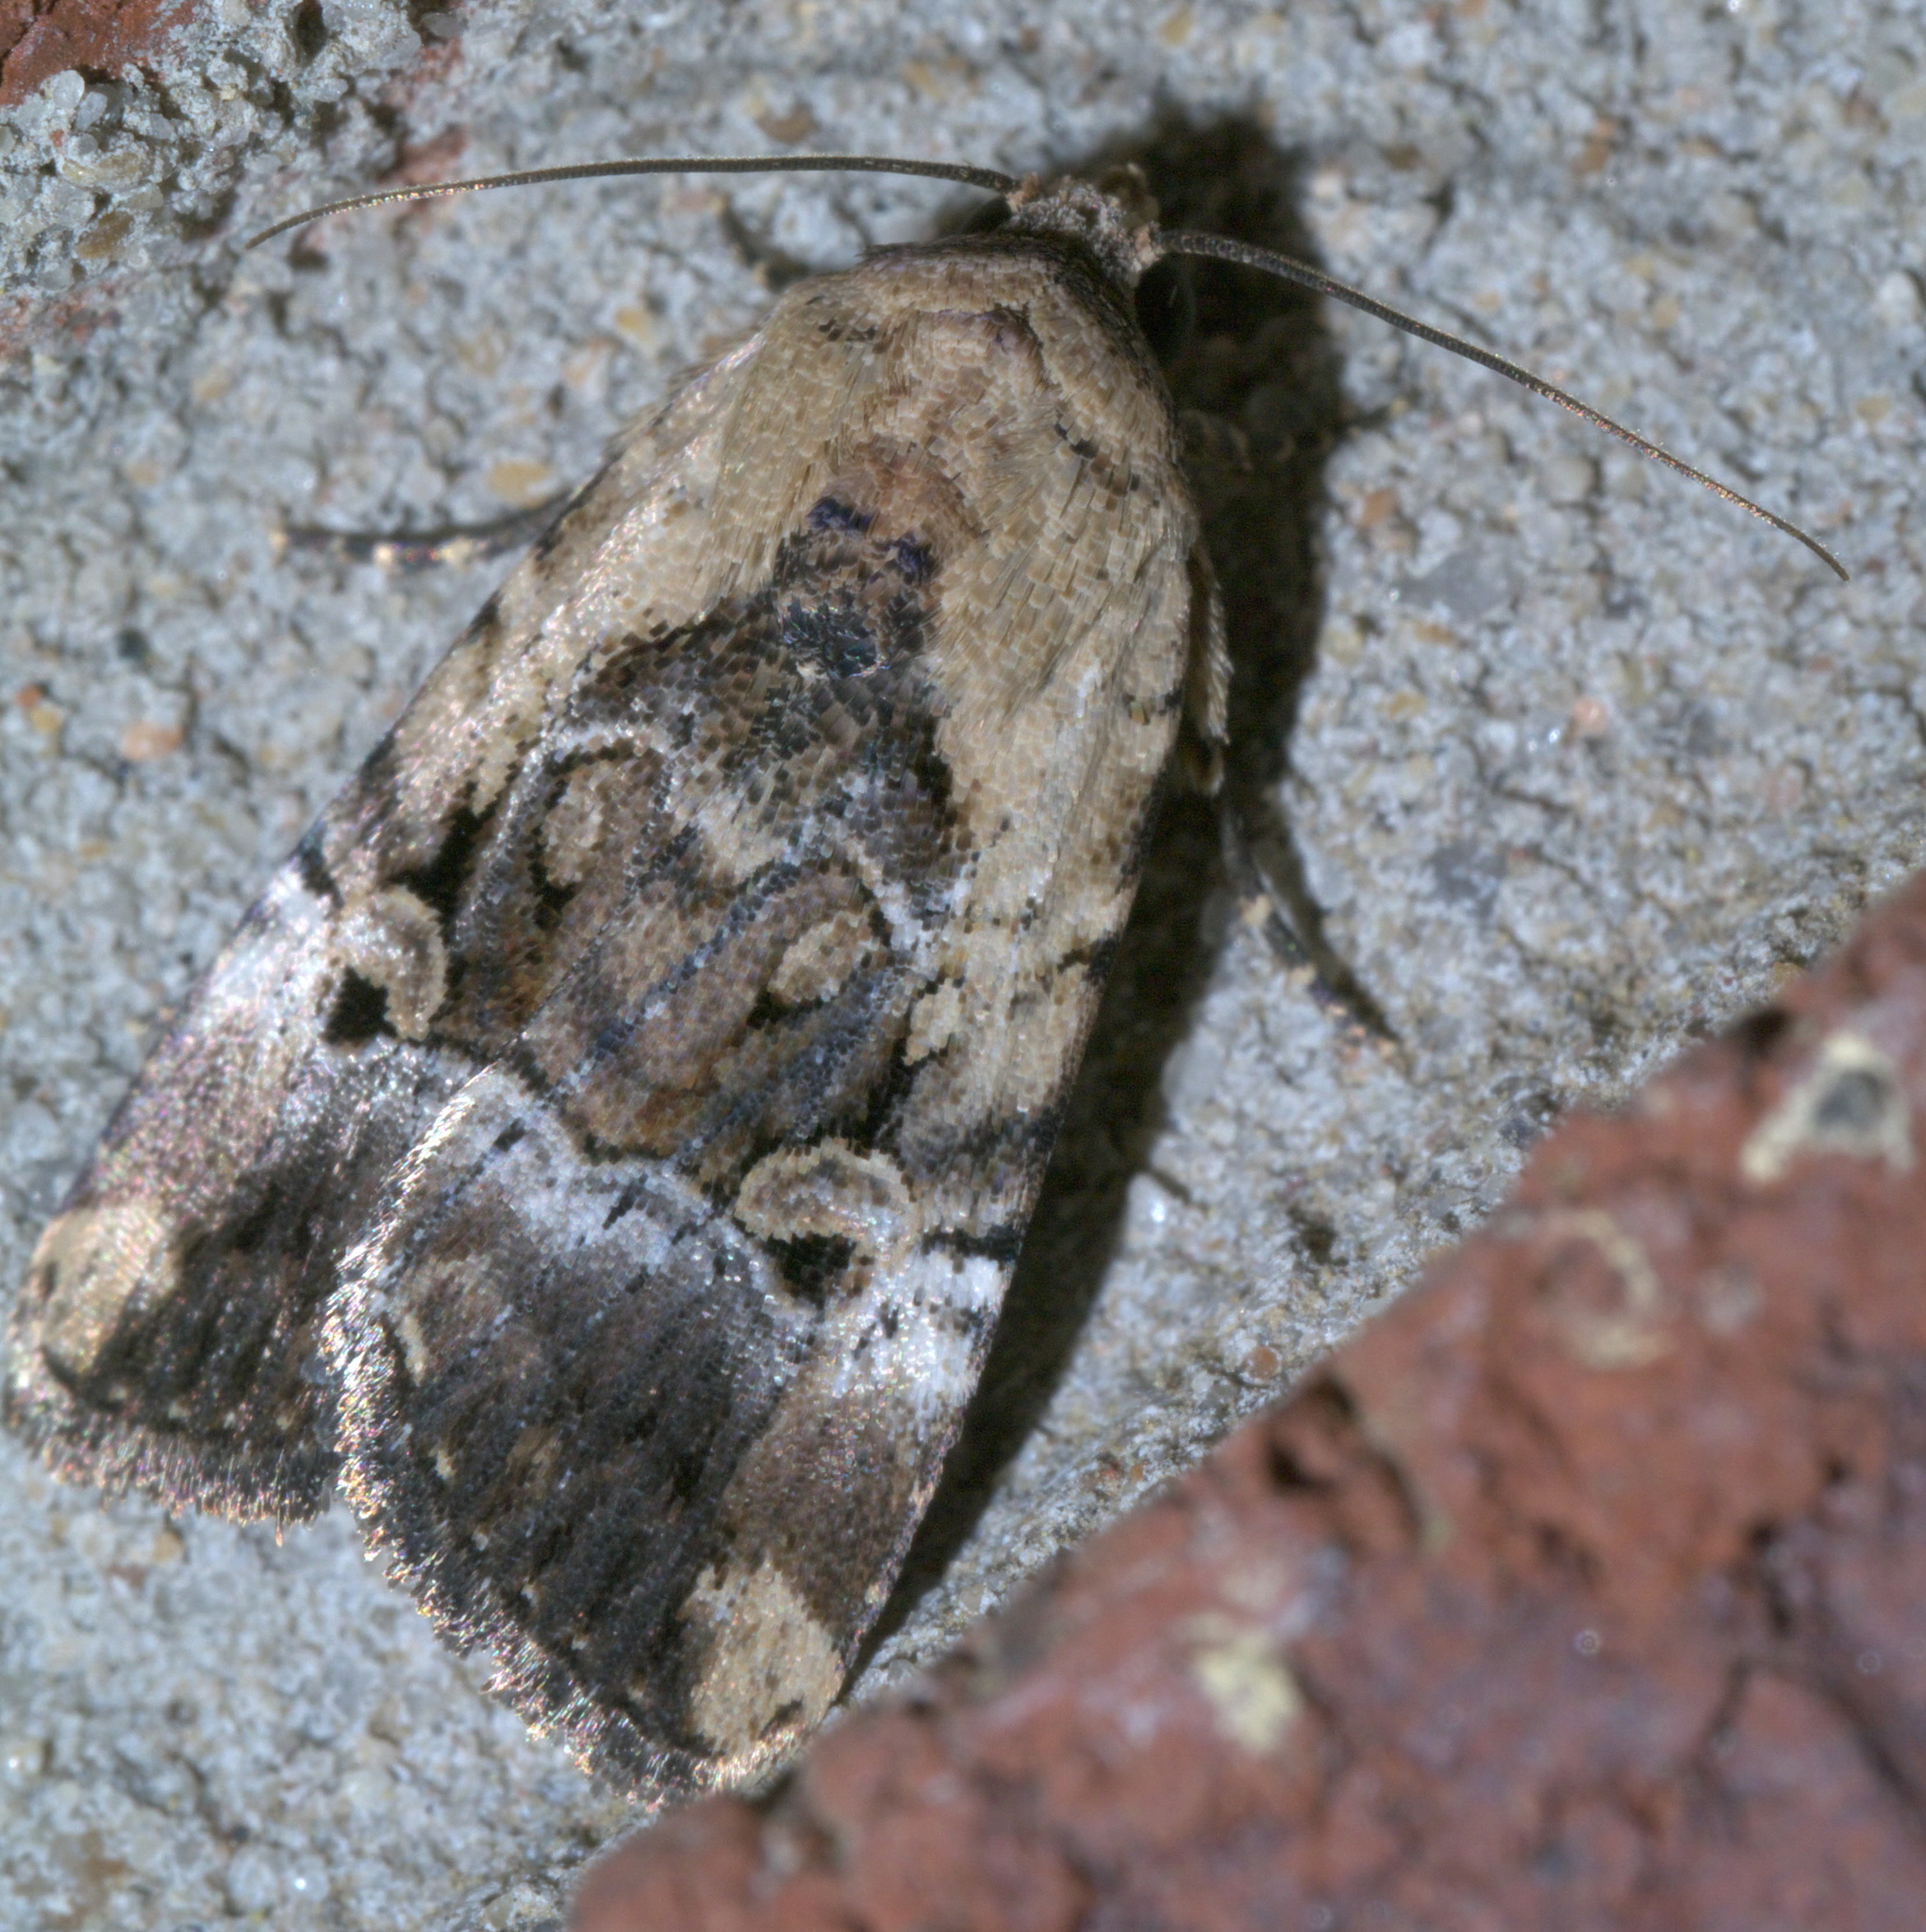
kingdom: Animalia
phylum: Arthropoda
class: Insecta
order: Lepidoptera
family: Noctuidae
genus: Elaphria
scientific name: Elaphria chalcedonia
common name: Chalcedony midget
